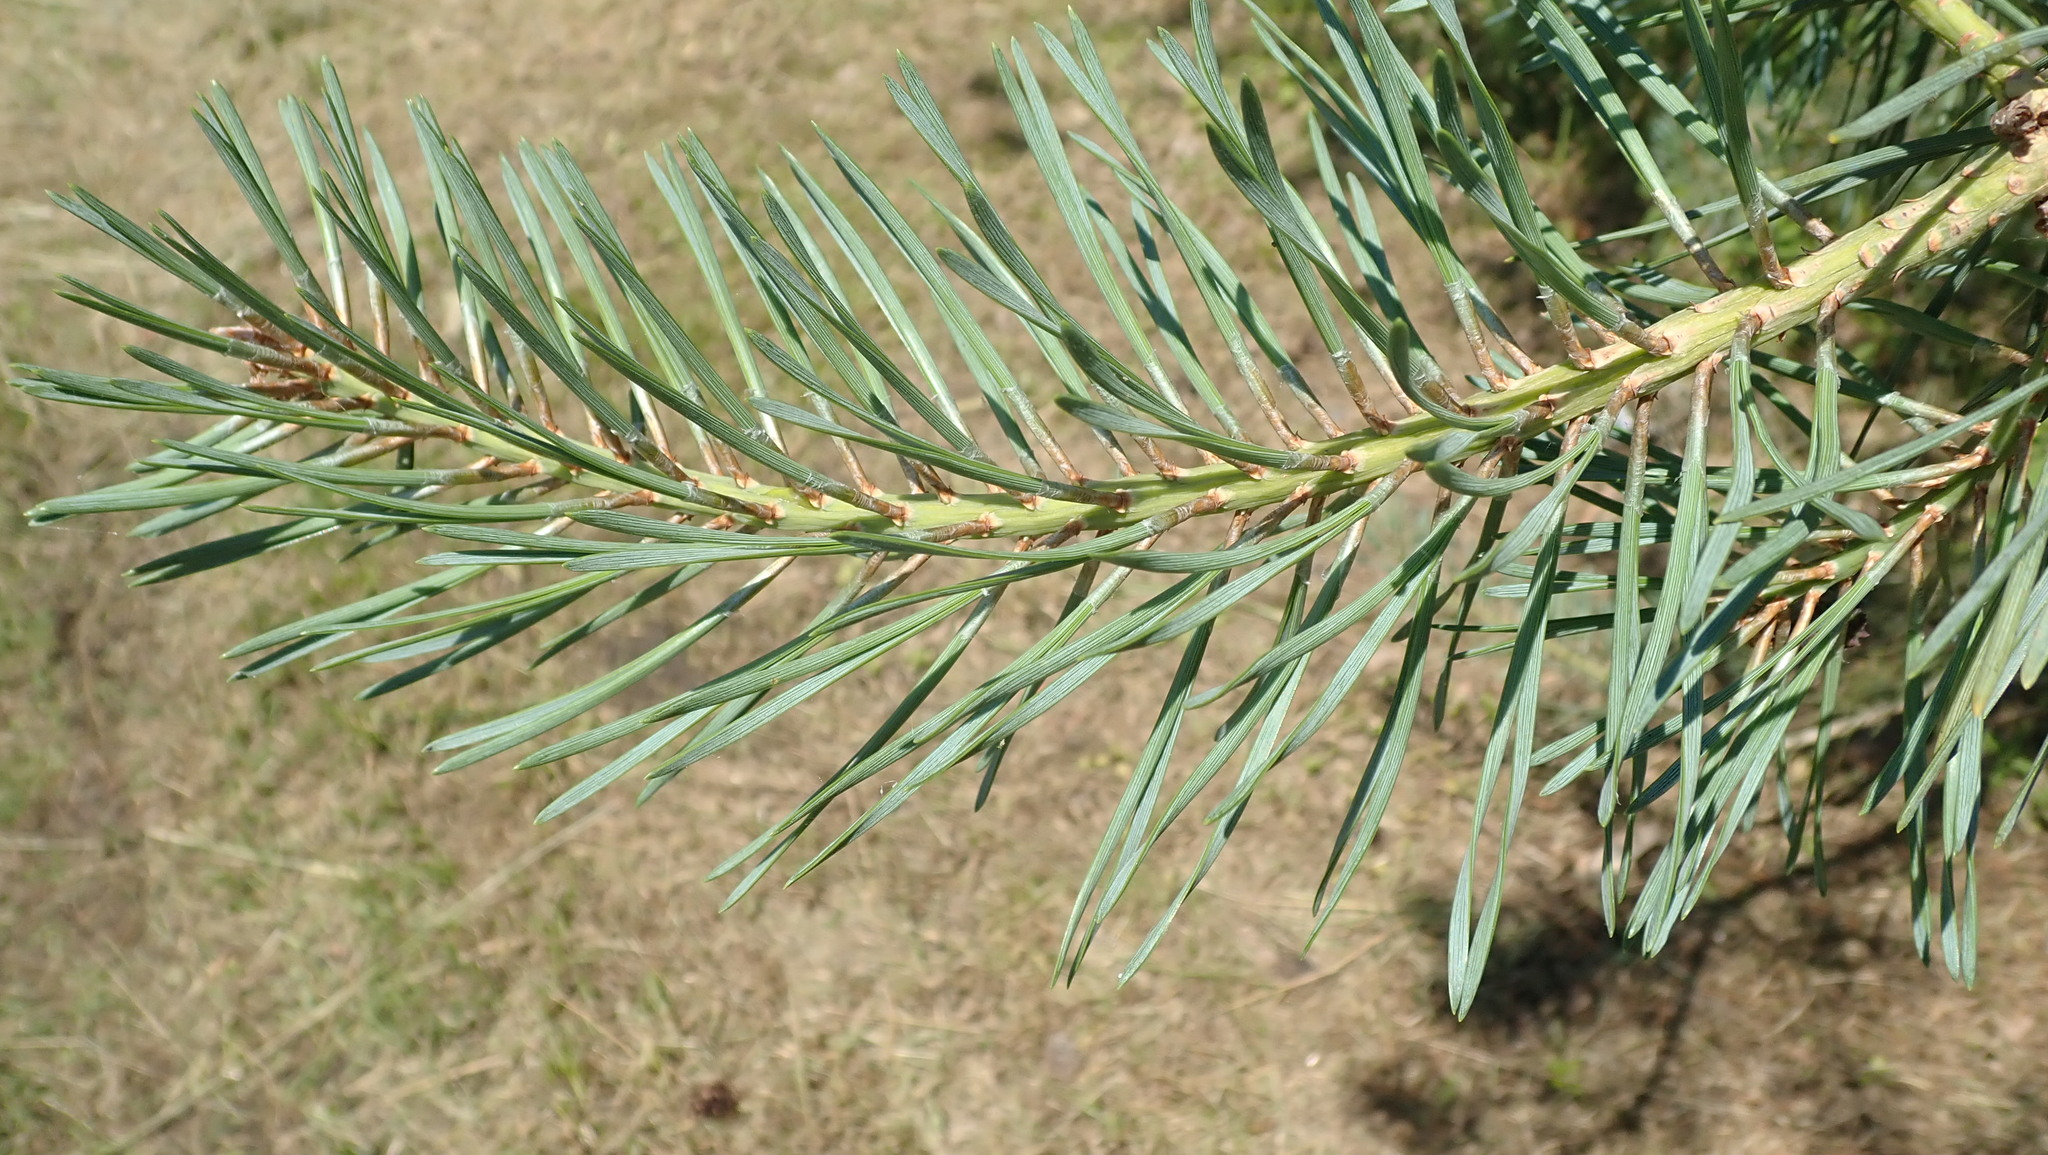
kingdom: Plantae
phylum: Tracheophyta
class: Pinopsida
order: Pinales
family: Pinaceae
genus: Pinus
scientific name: Pinus sylvestris
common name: Scots pine
